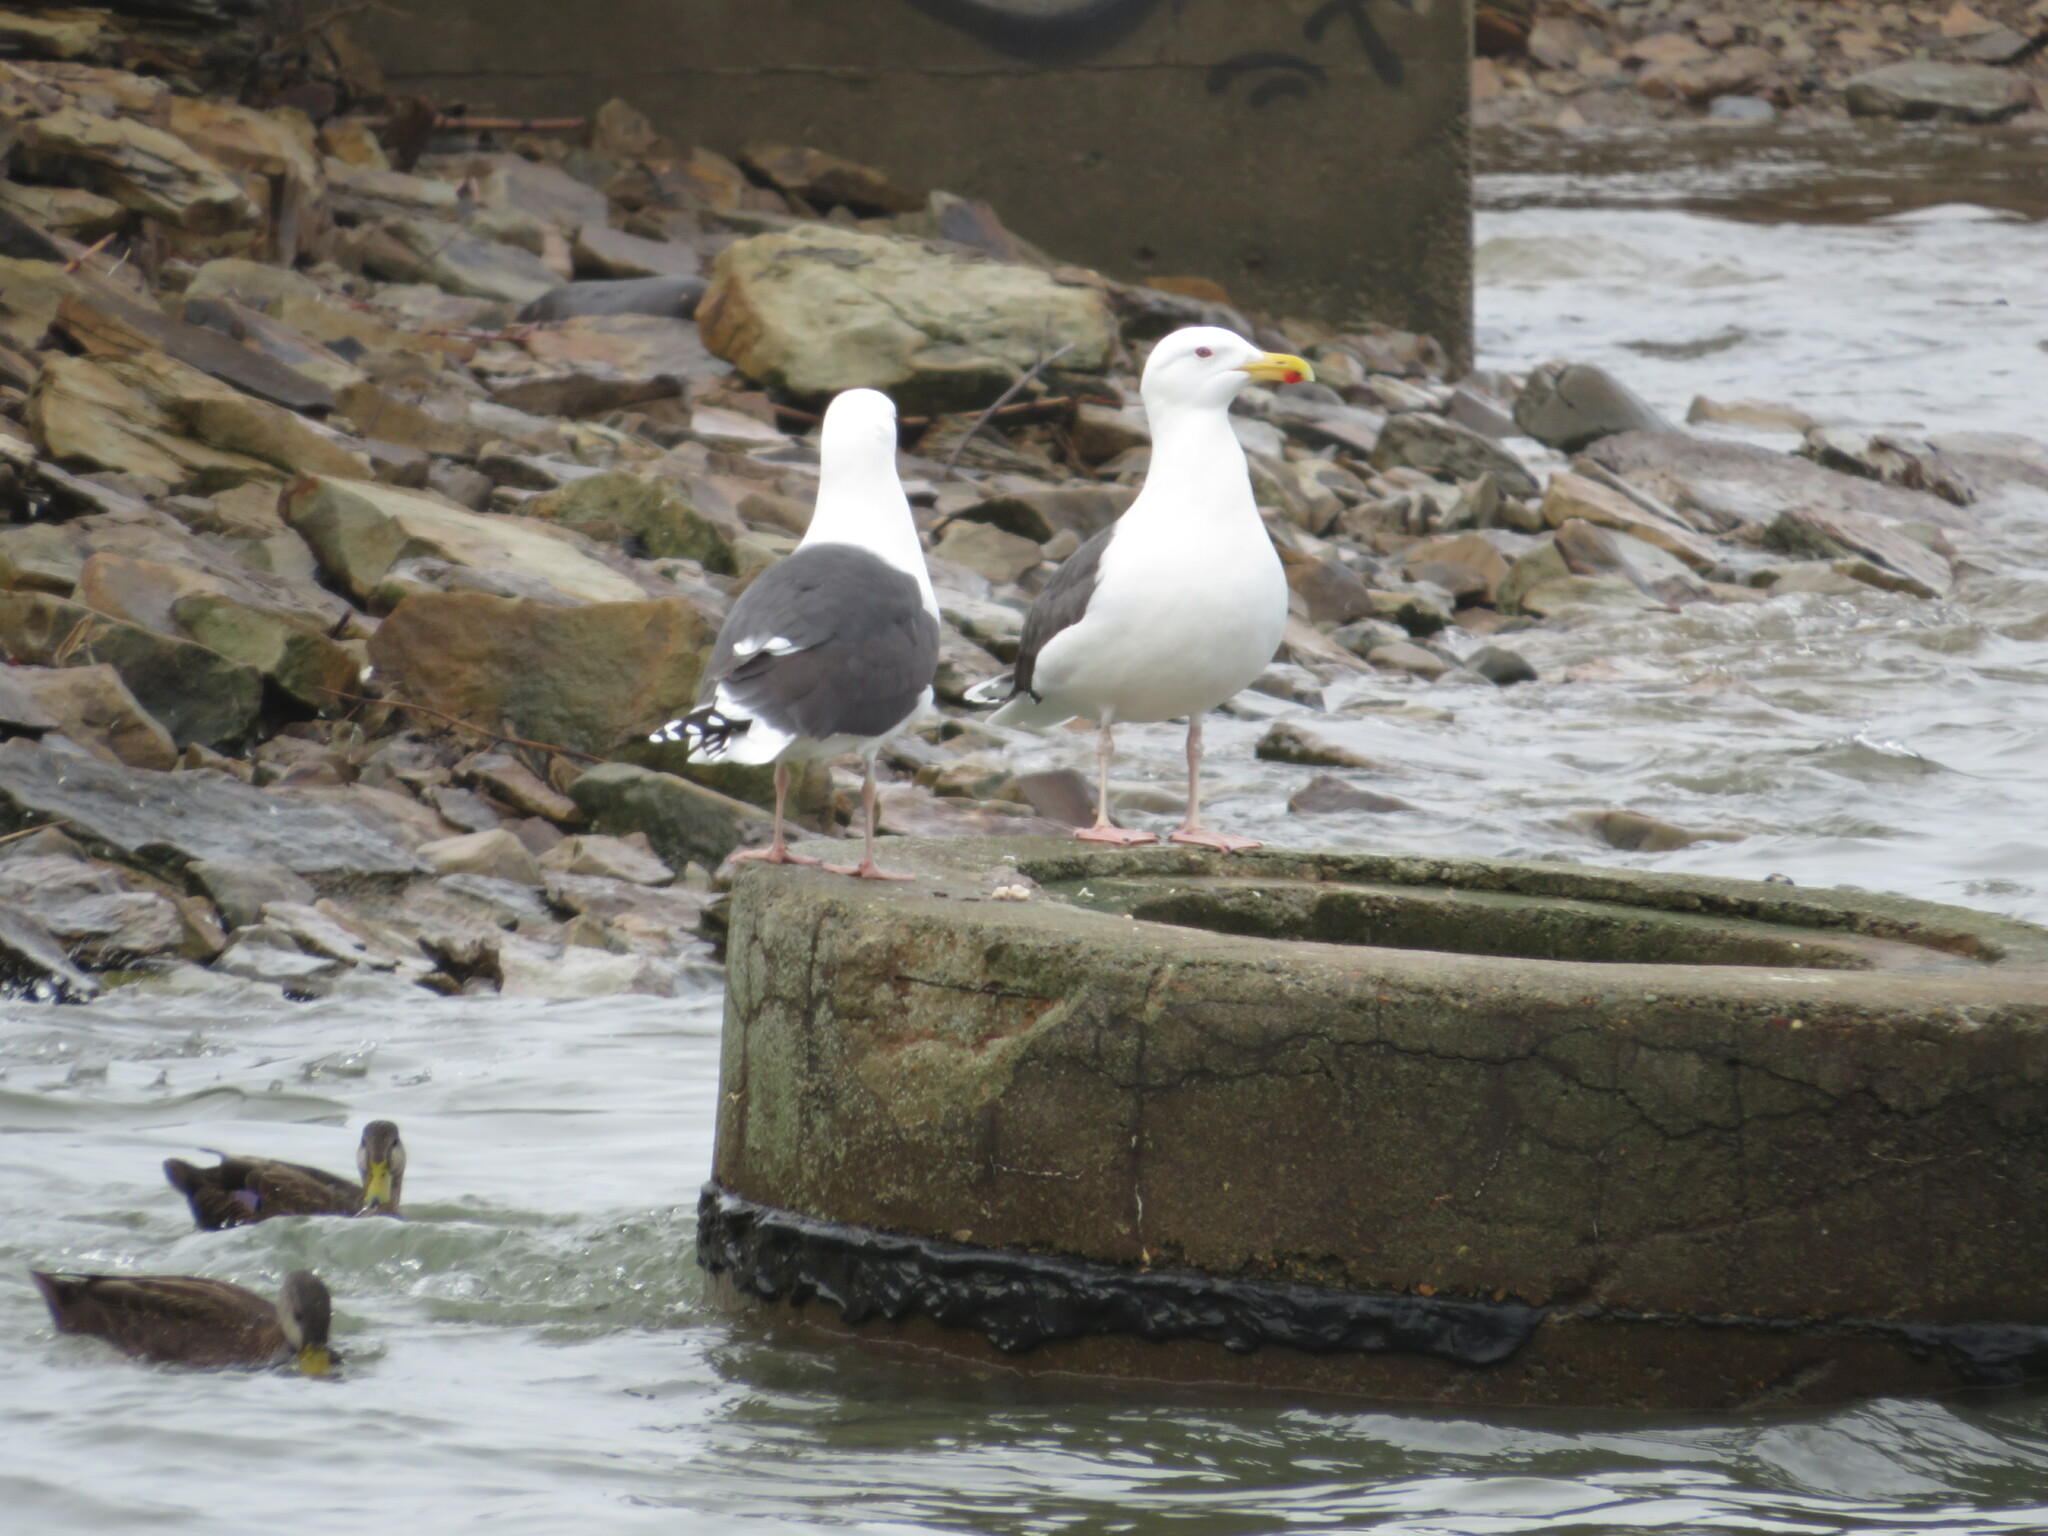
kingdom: Animalia
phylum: Chordata
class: Aves
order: Charadriiformes
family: Laridae
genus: Larus
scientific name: Larus marinus
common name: Great black-backed gull
